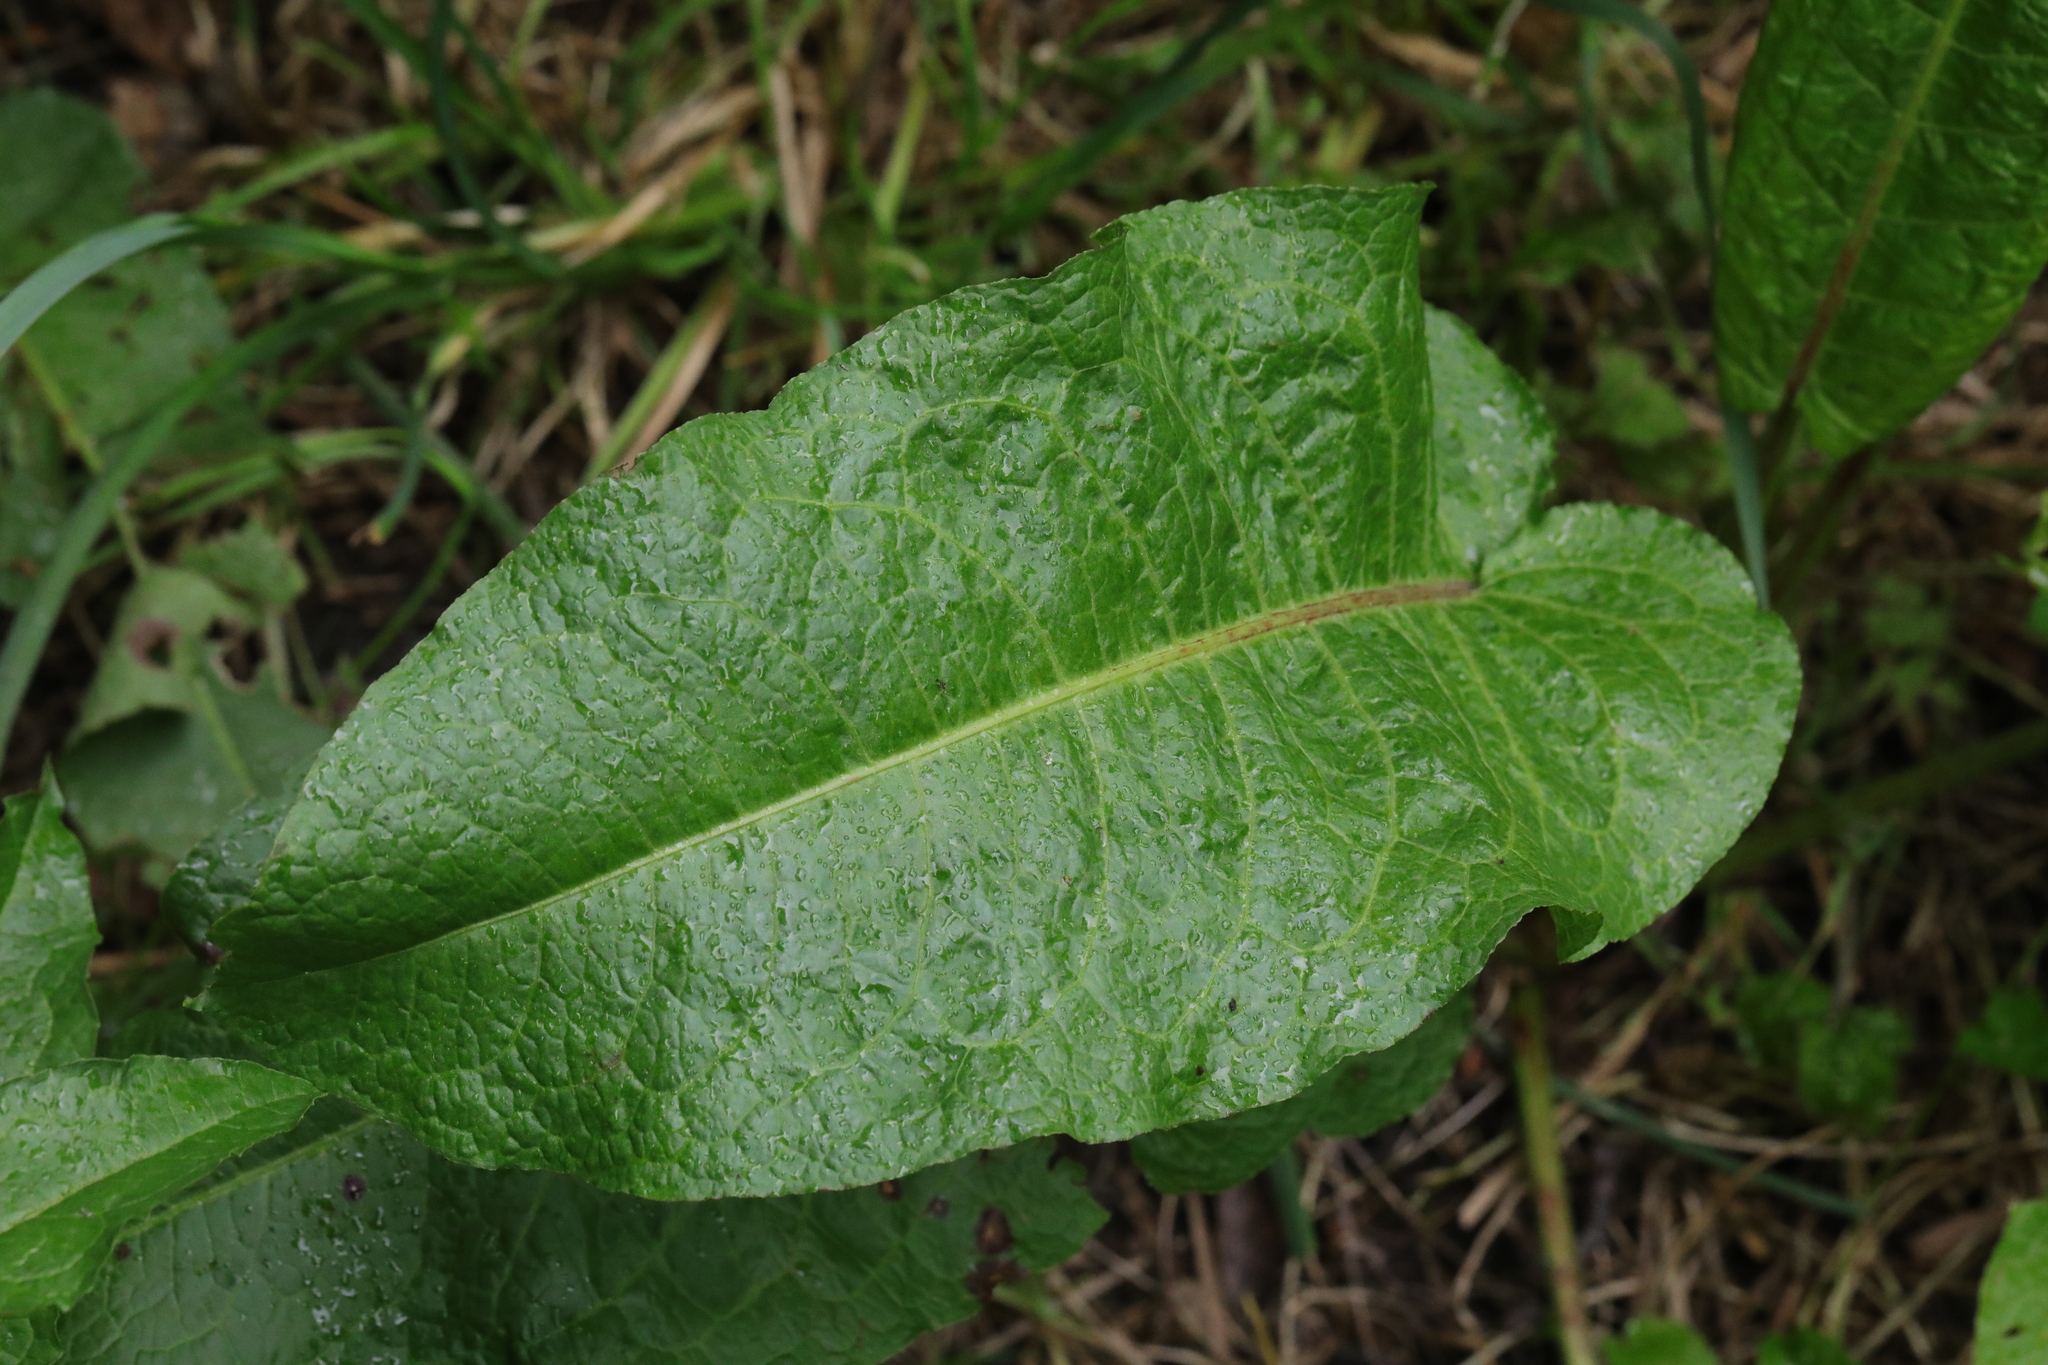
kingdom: Plantae
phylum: Tracheophyta
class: Magnoliopsida
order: Caryophyllales
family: Polygonaceae
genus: Rumex
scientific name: Rumex obtusifolius
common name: Bitter dock
